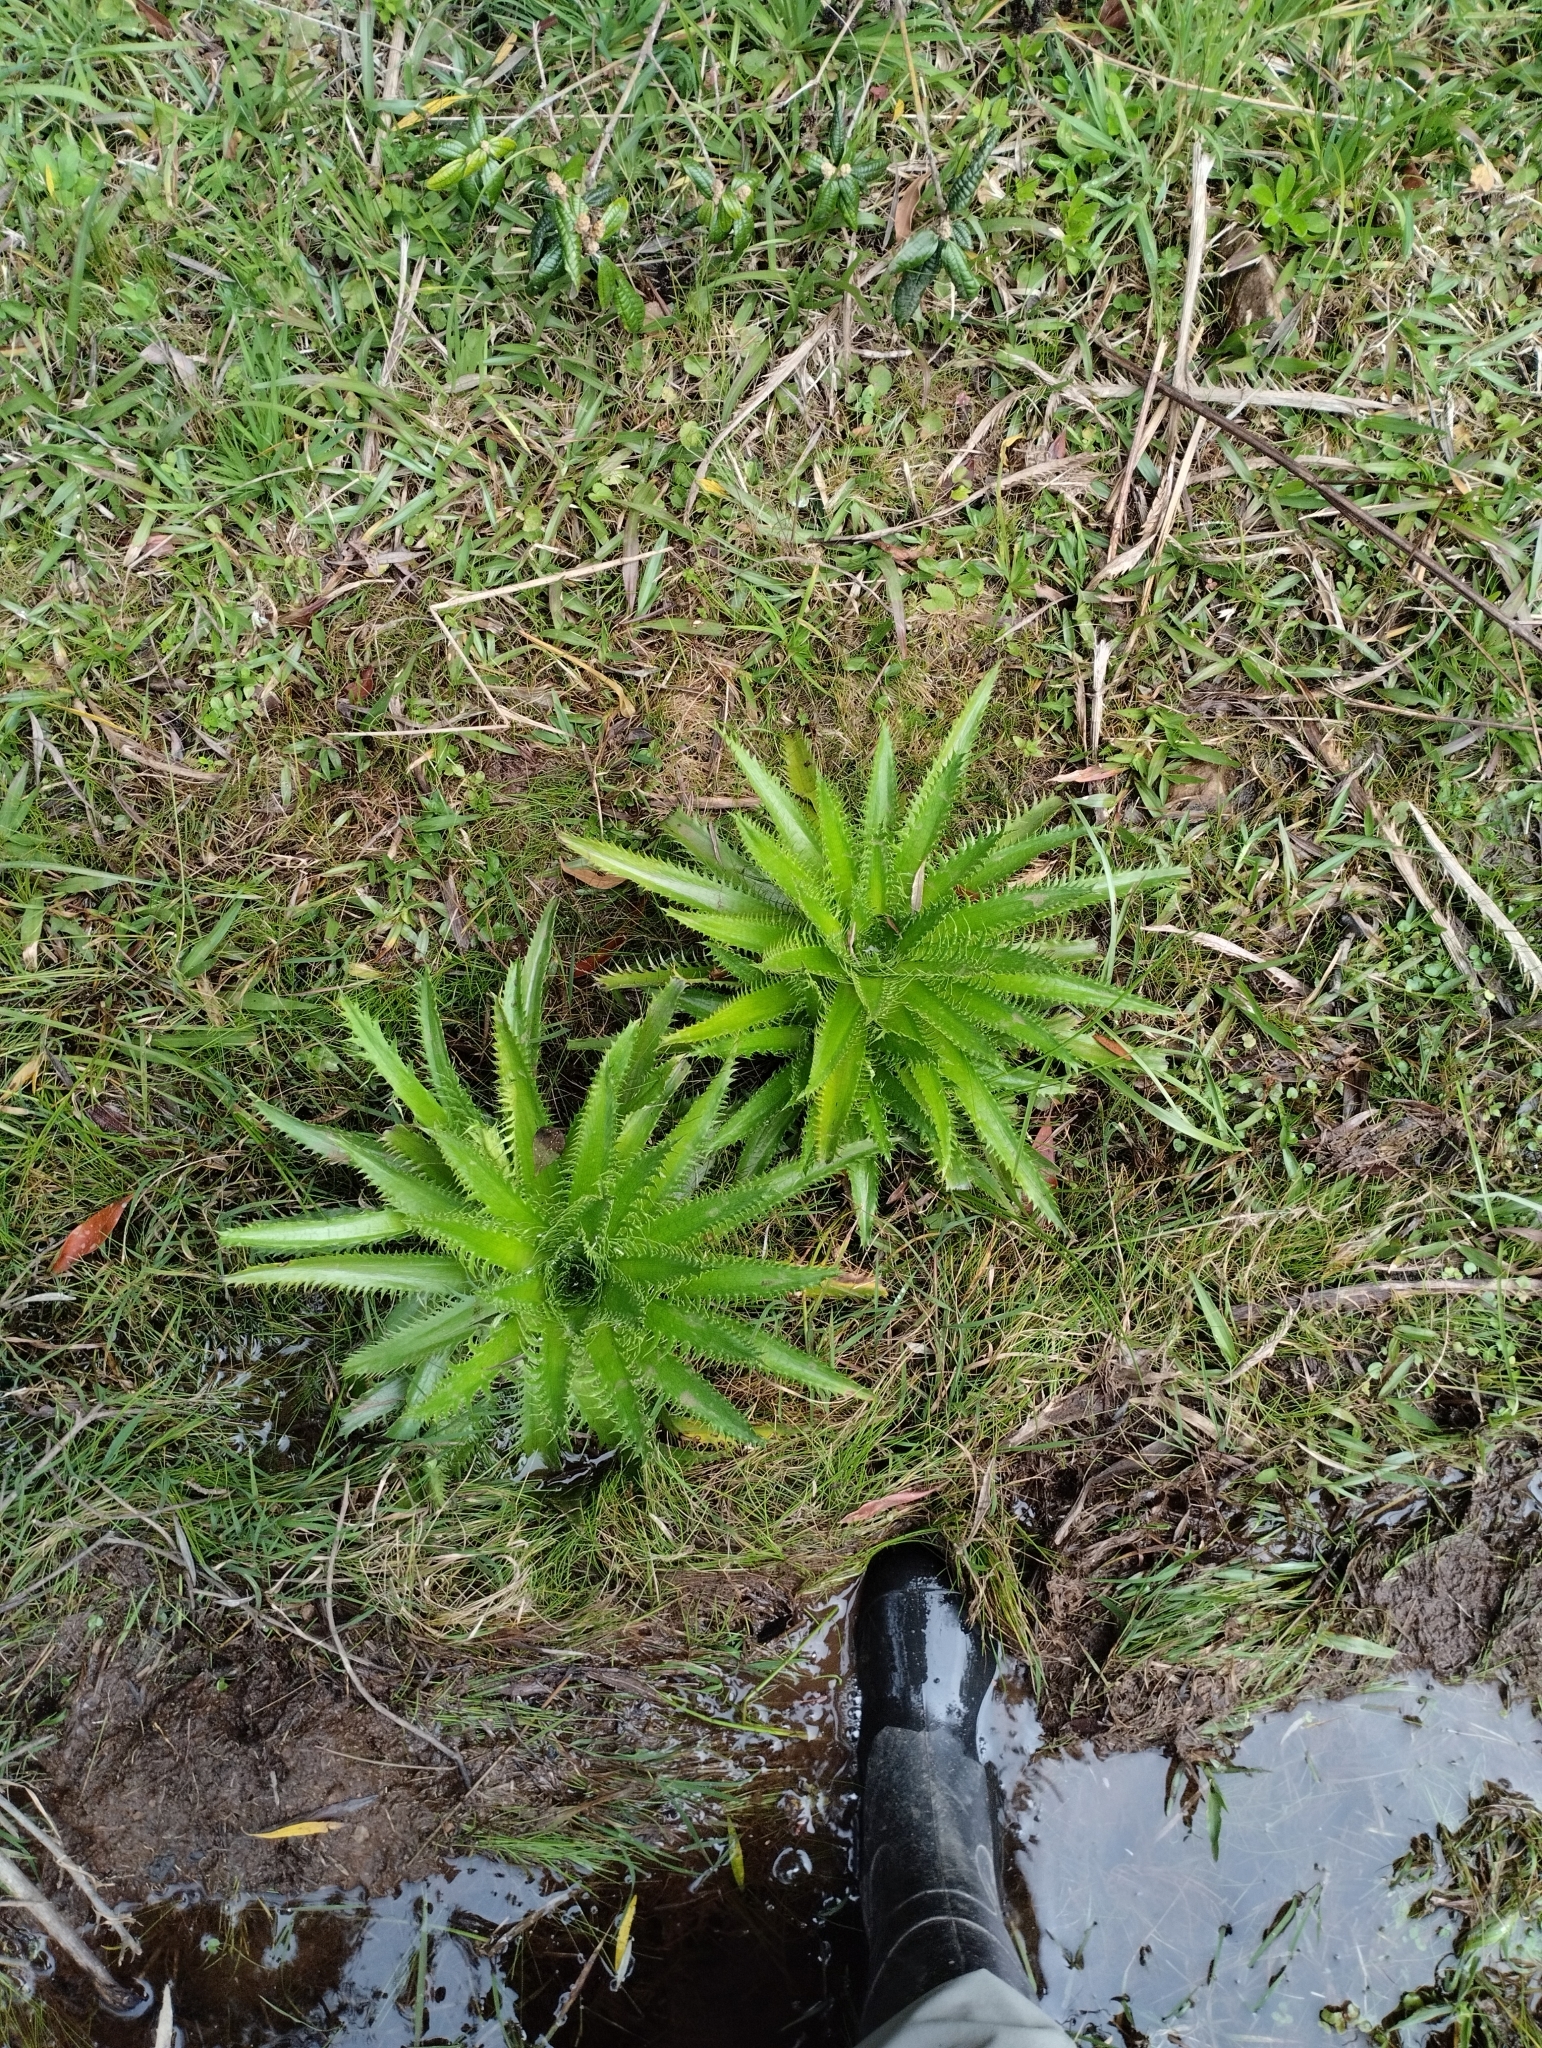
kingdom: Plantae
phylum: Tracheophyta
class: Magnoliopsida
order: Apiales
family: Apiaceae
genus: Eryngium
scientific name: Eryngium serra
